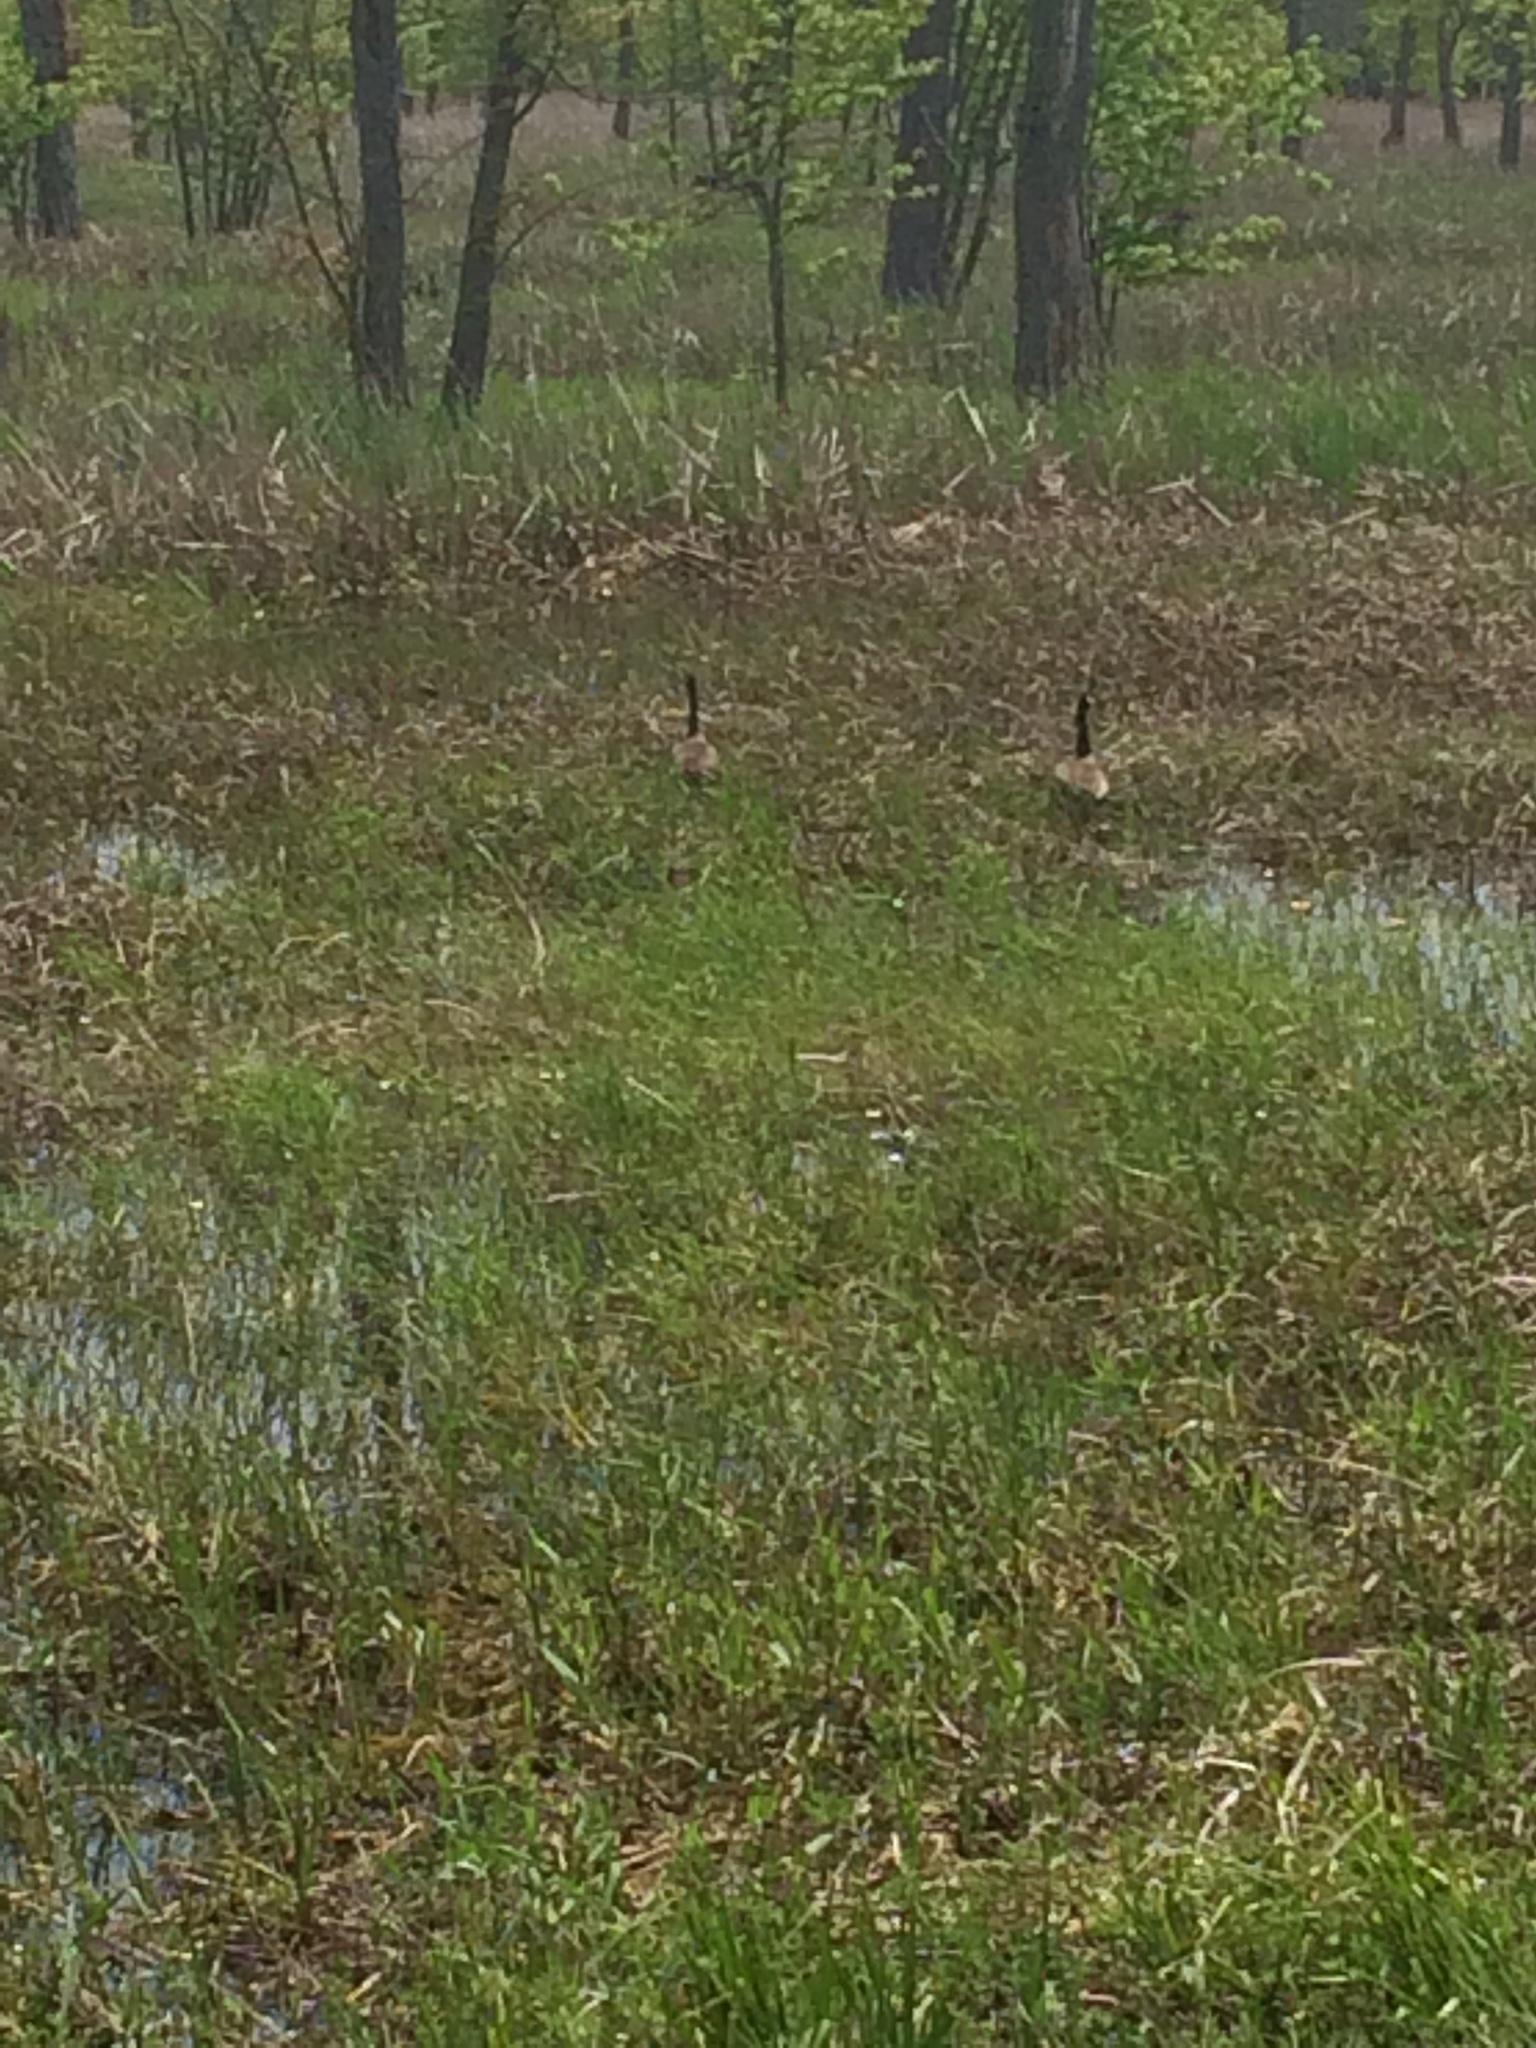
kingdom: Animalia
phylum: Chordata
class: Aves
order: Anseriformes
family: Anatidae
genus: Branta
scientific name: Branta canadensis
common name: Canada goose
